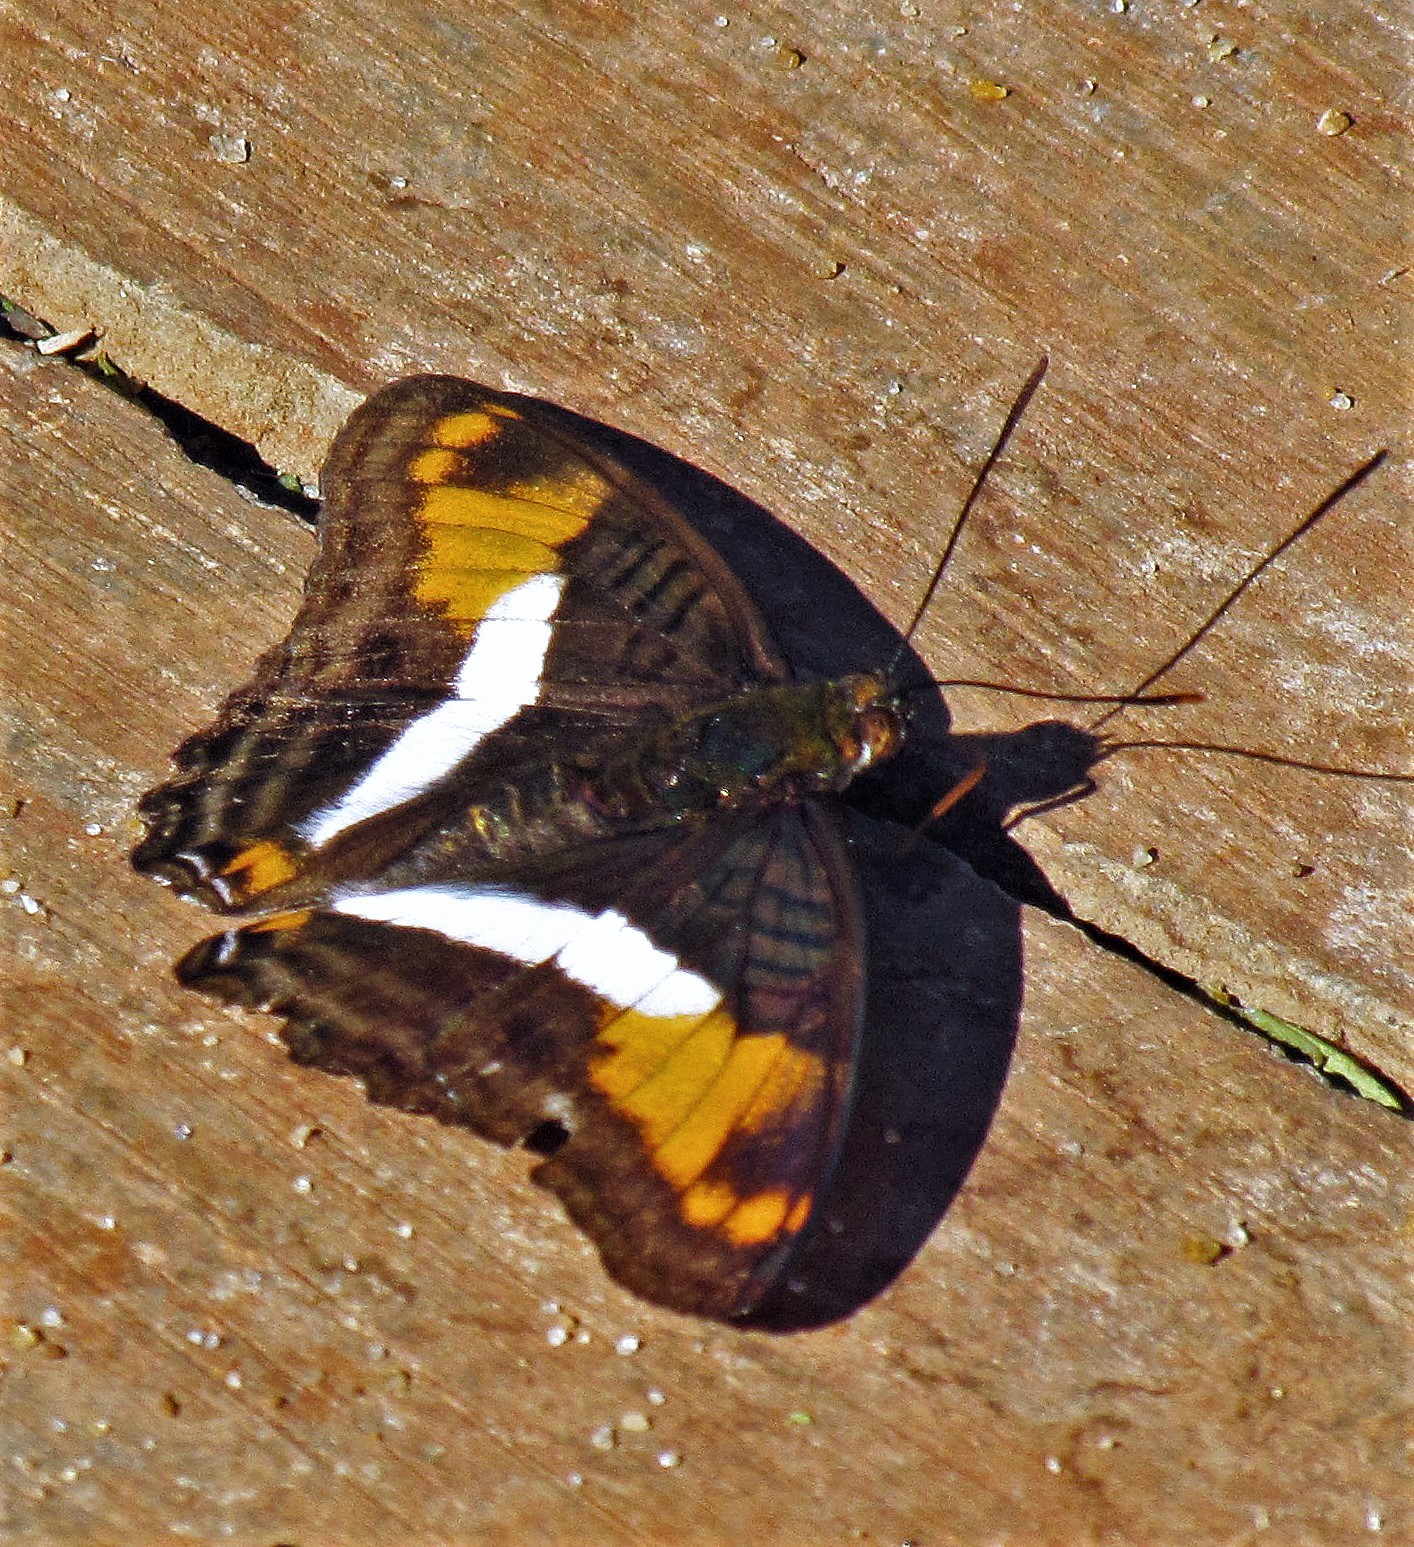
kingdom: Animalia
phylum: Arthropoda
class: Insecta
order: Lepidoptera
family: Nymphalidae
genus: Limenitis
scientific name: Limenitis malea
